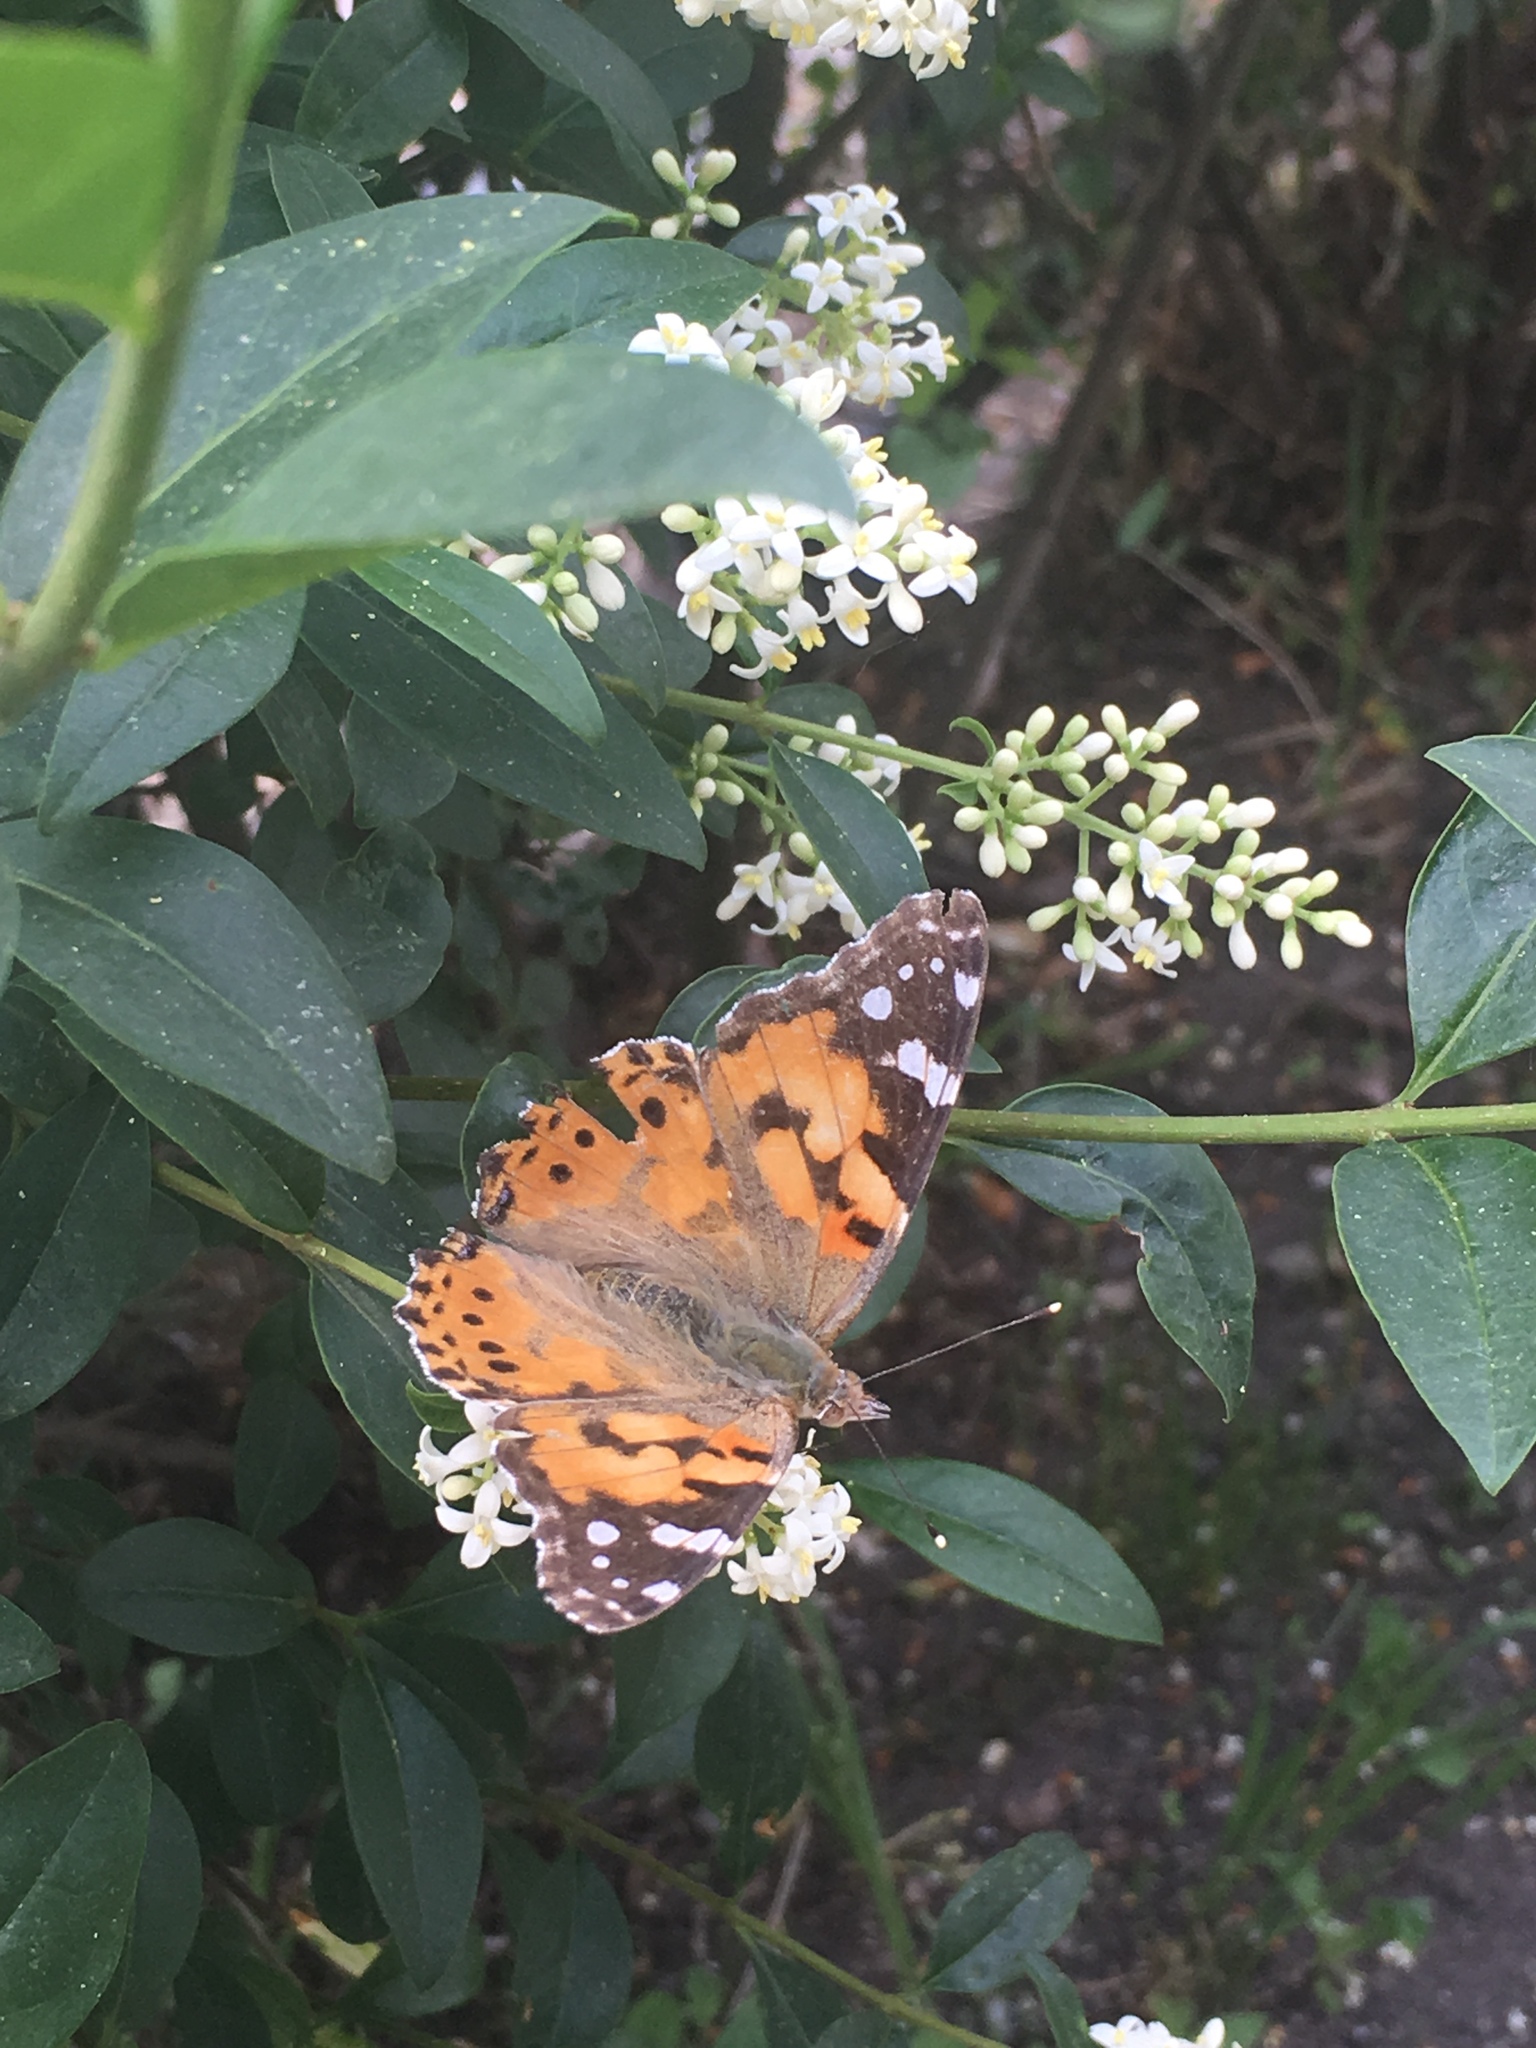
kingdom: Animalia
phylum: Arthropoda
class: Insecta
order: Lepidoptera
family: Nymphalidae
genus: Vanessa
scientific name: Vanessa cardui
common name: Painted lady
